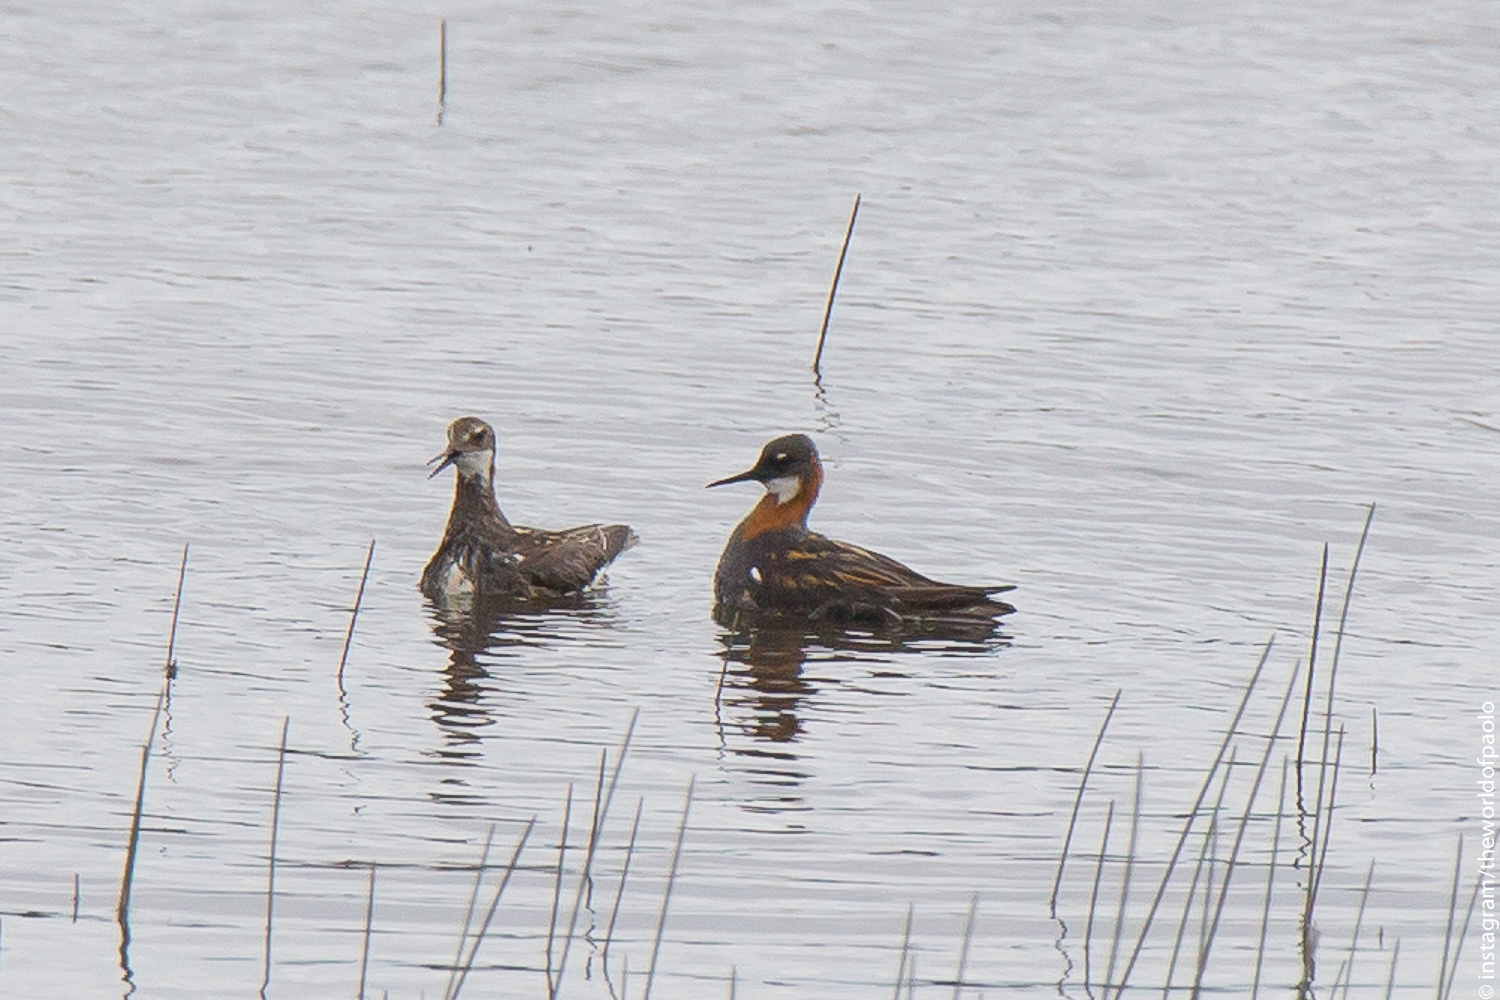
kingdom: Animalia
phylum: Chordata
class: Aves
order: Charadriiformes
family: Scolopacidae
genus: Phalaropus
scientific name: Phalaropus lobatus
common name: Red-necked phalarope
